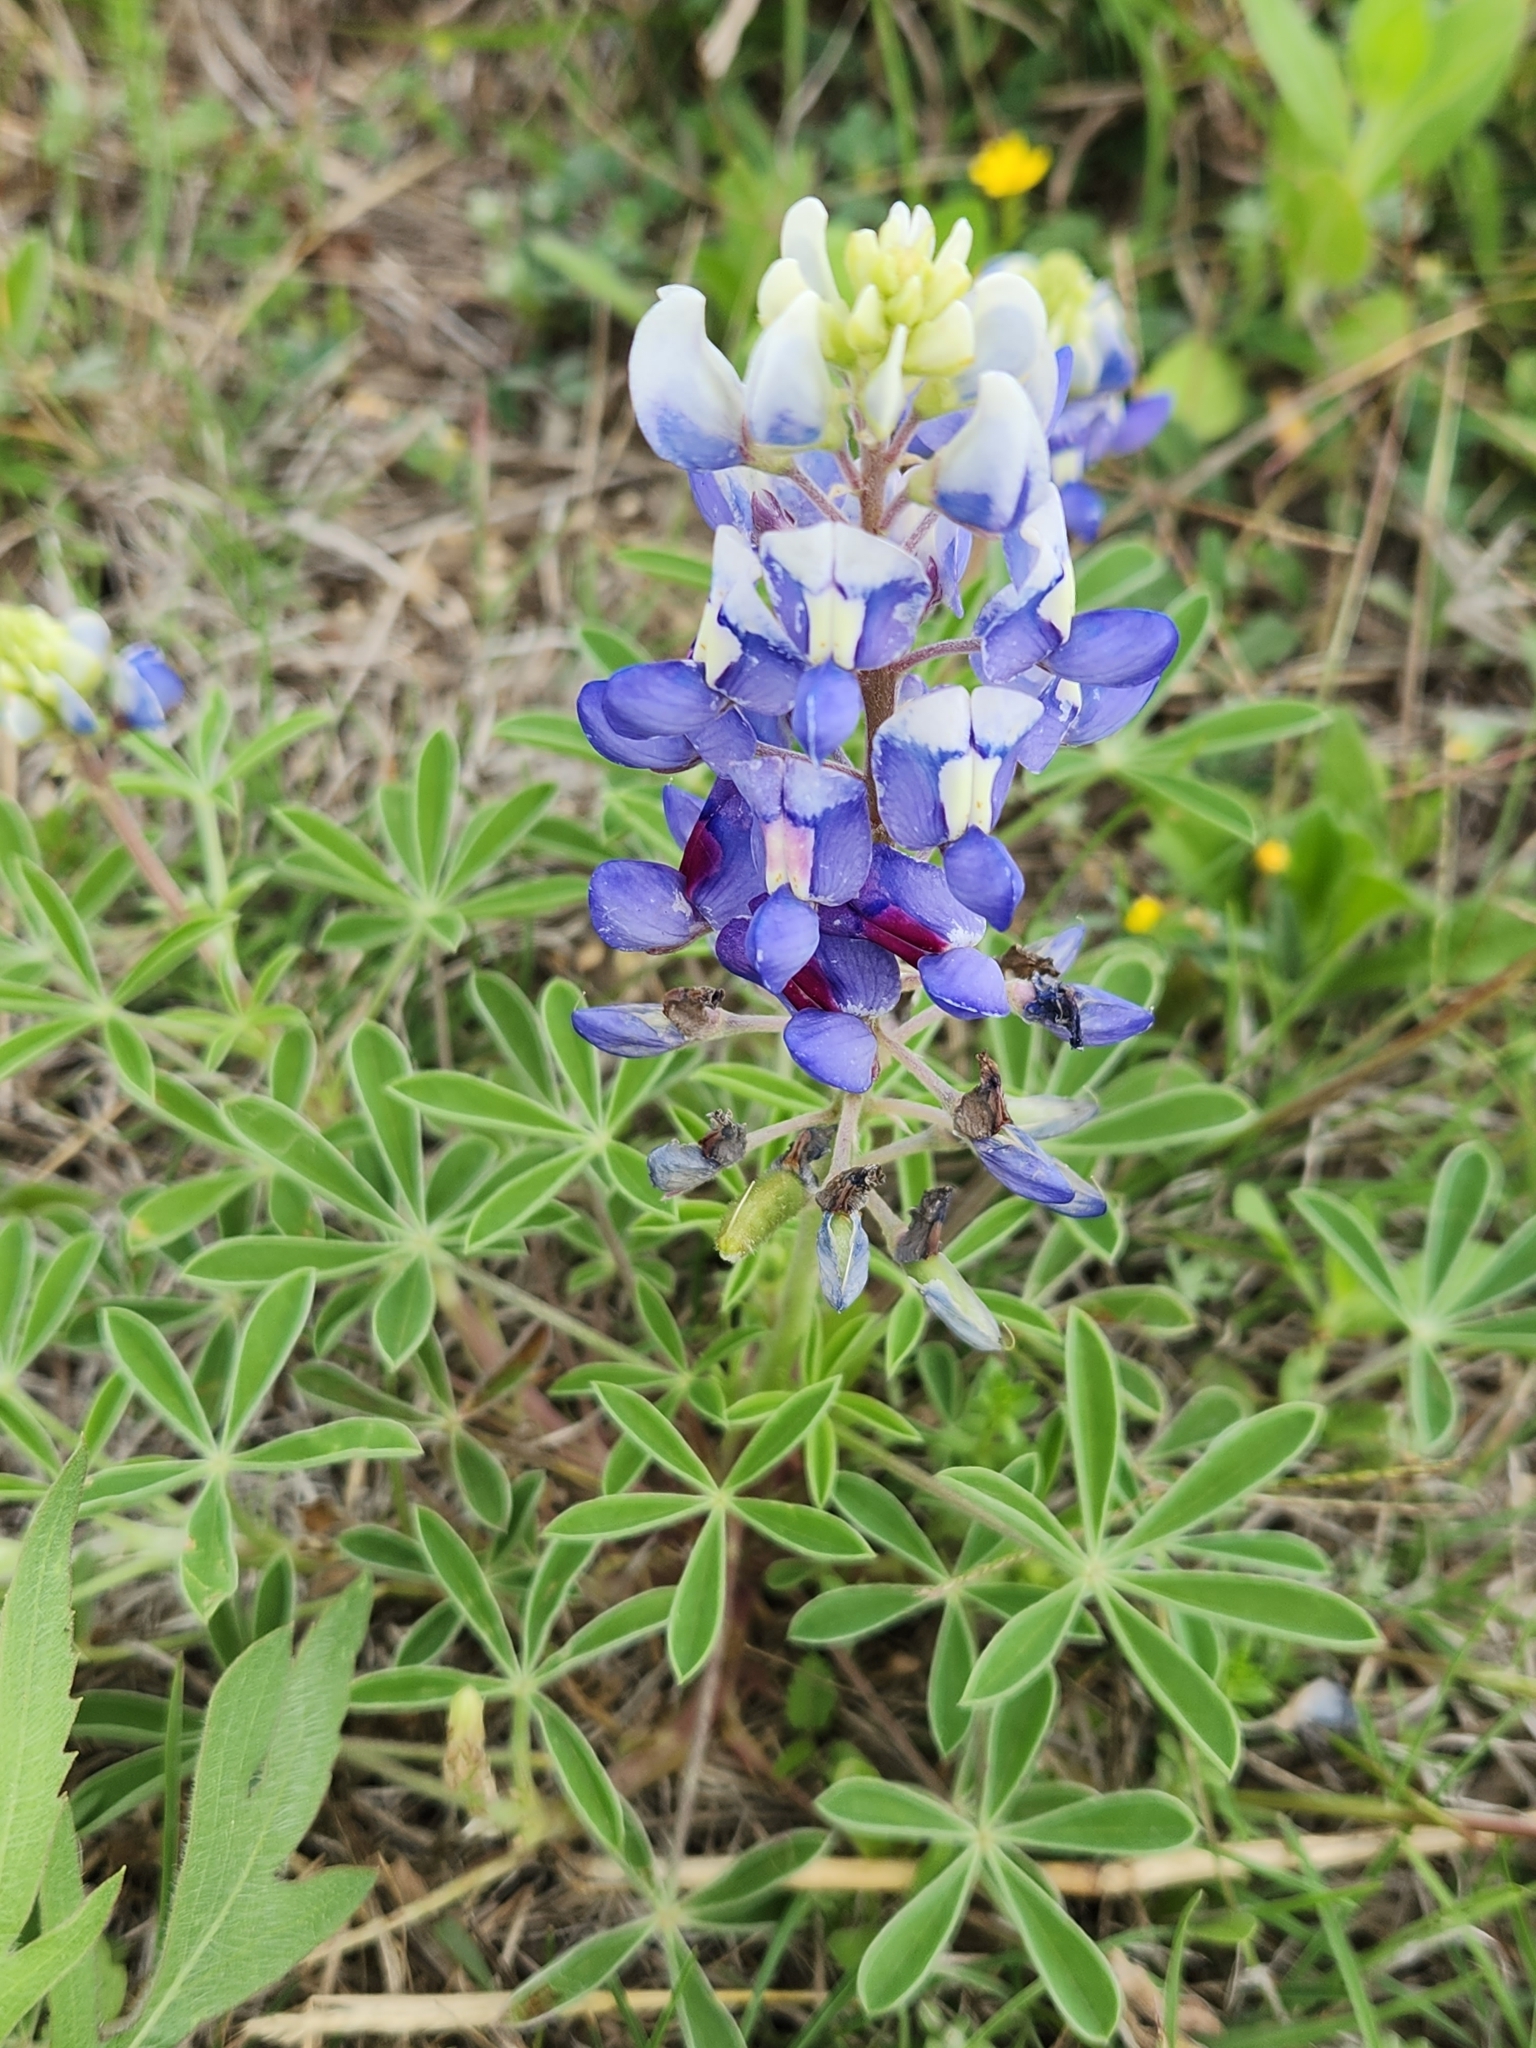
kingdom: Plantae
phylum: Tracheophyta
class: Magnoliopsida
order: Fabales
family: Fabaceae
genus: Lupinus
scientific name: Lupinus texensis
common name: Texas bluebonnet
